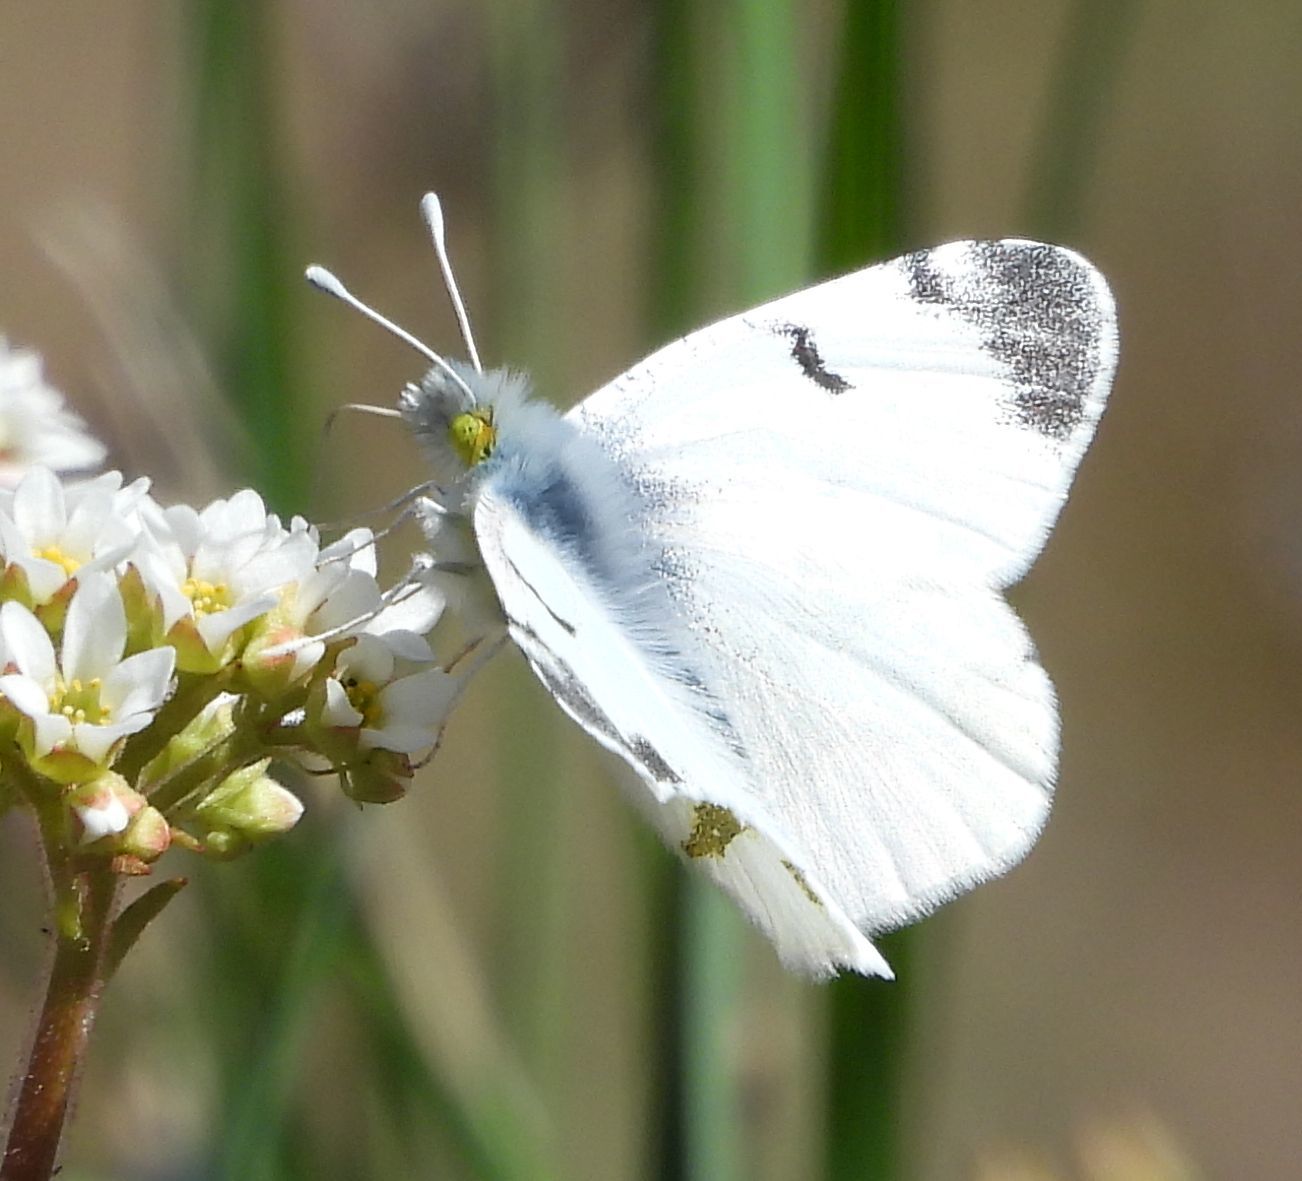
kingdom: Animalia
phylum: Arthropoda
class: Insecta
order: Lepidoptera
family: Pieridae
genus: Euchloe
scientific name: Euchloe olympia
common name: Olympia
